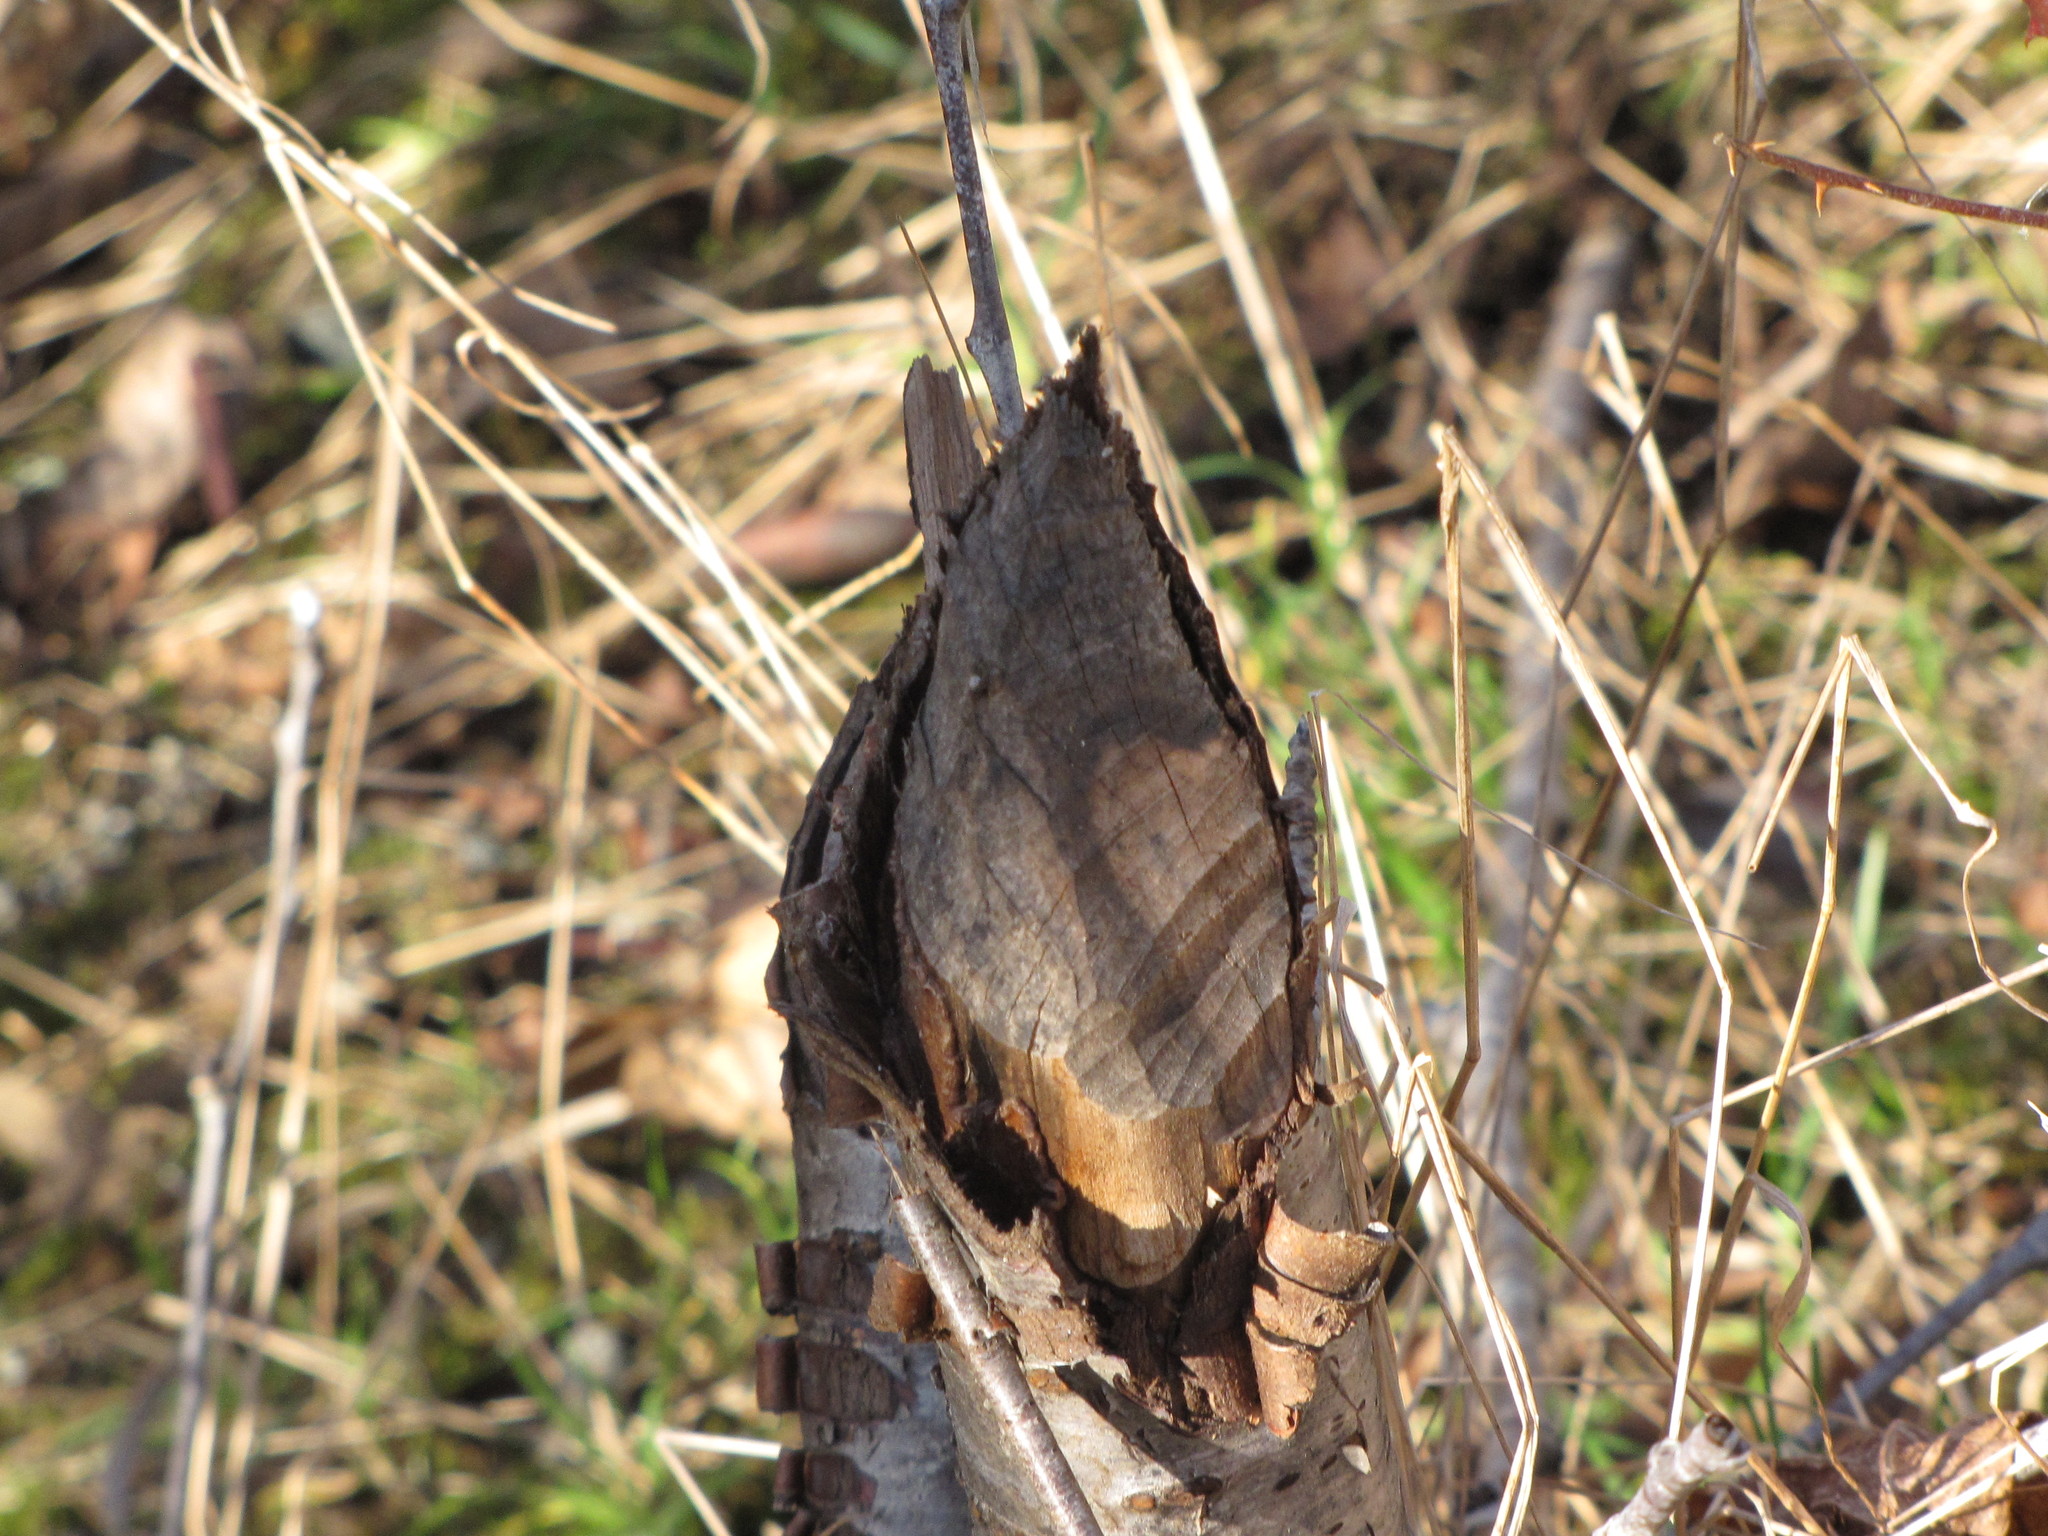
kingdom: Animalia
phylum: Chordata
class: Mammalia
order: Rodentia
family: Castoridae
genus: Castor
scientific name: Castor canadensis
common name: American beaver
